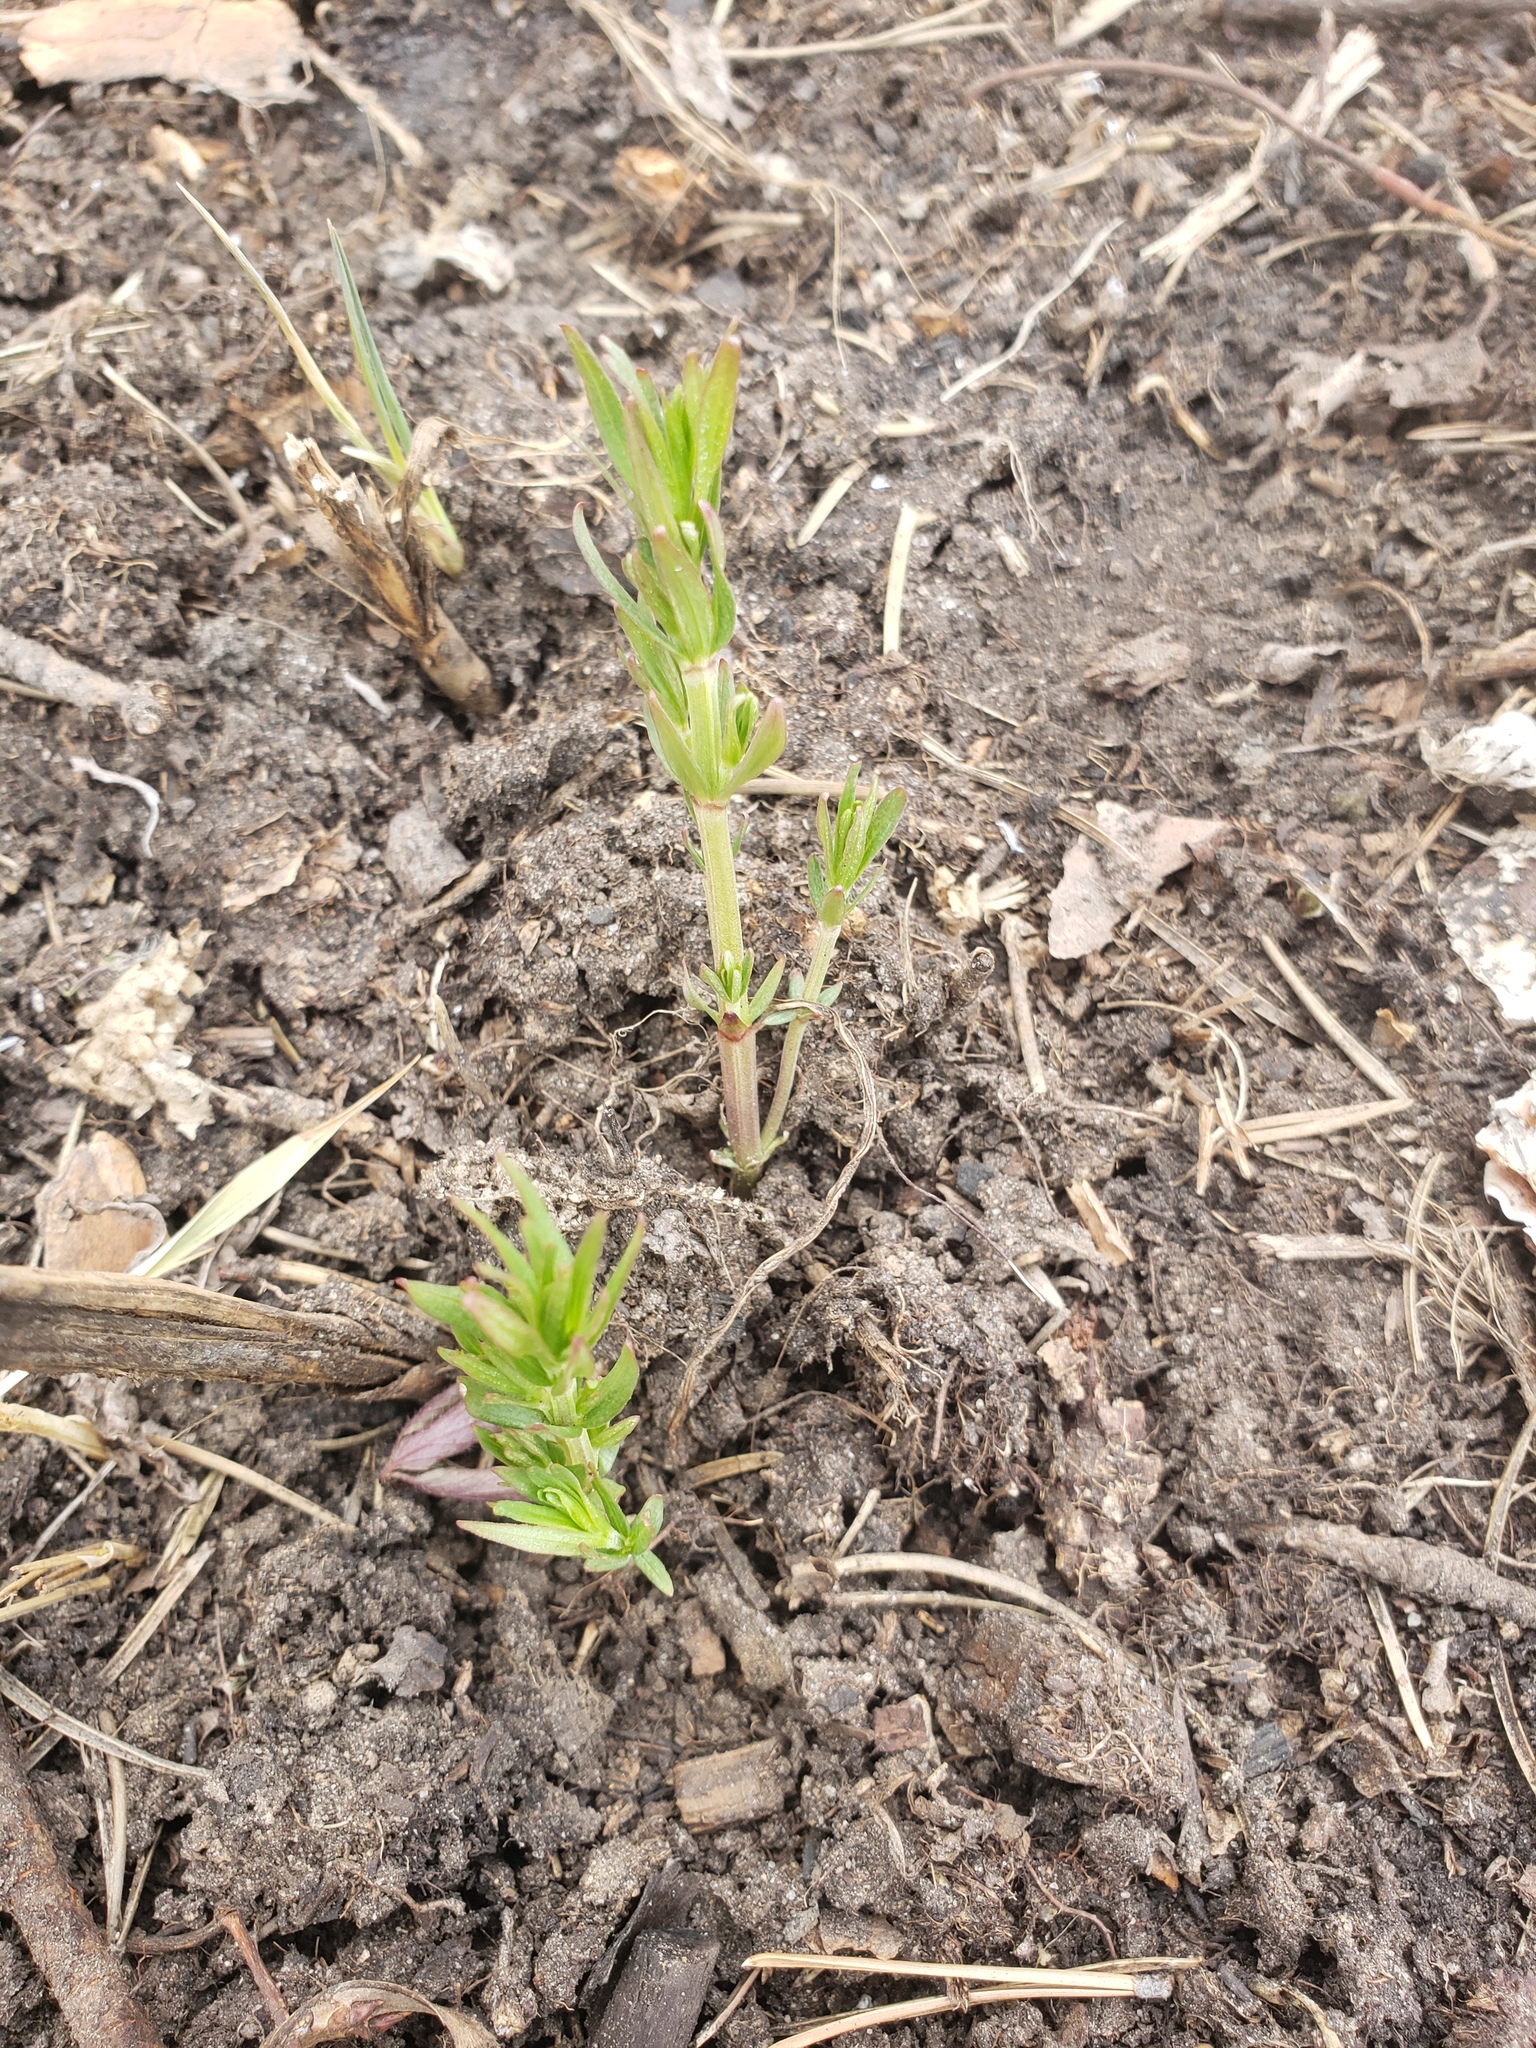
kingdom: Plantae
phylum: Tracheophyta
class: Magnoliopsida
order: Gentianales
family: Rubiaceae
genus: Galium
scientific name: Galium boreale
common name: Northern bedstraw
